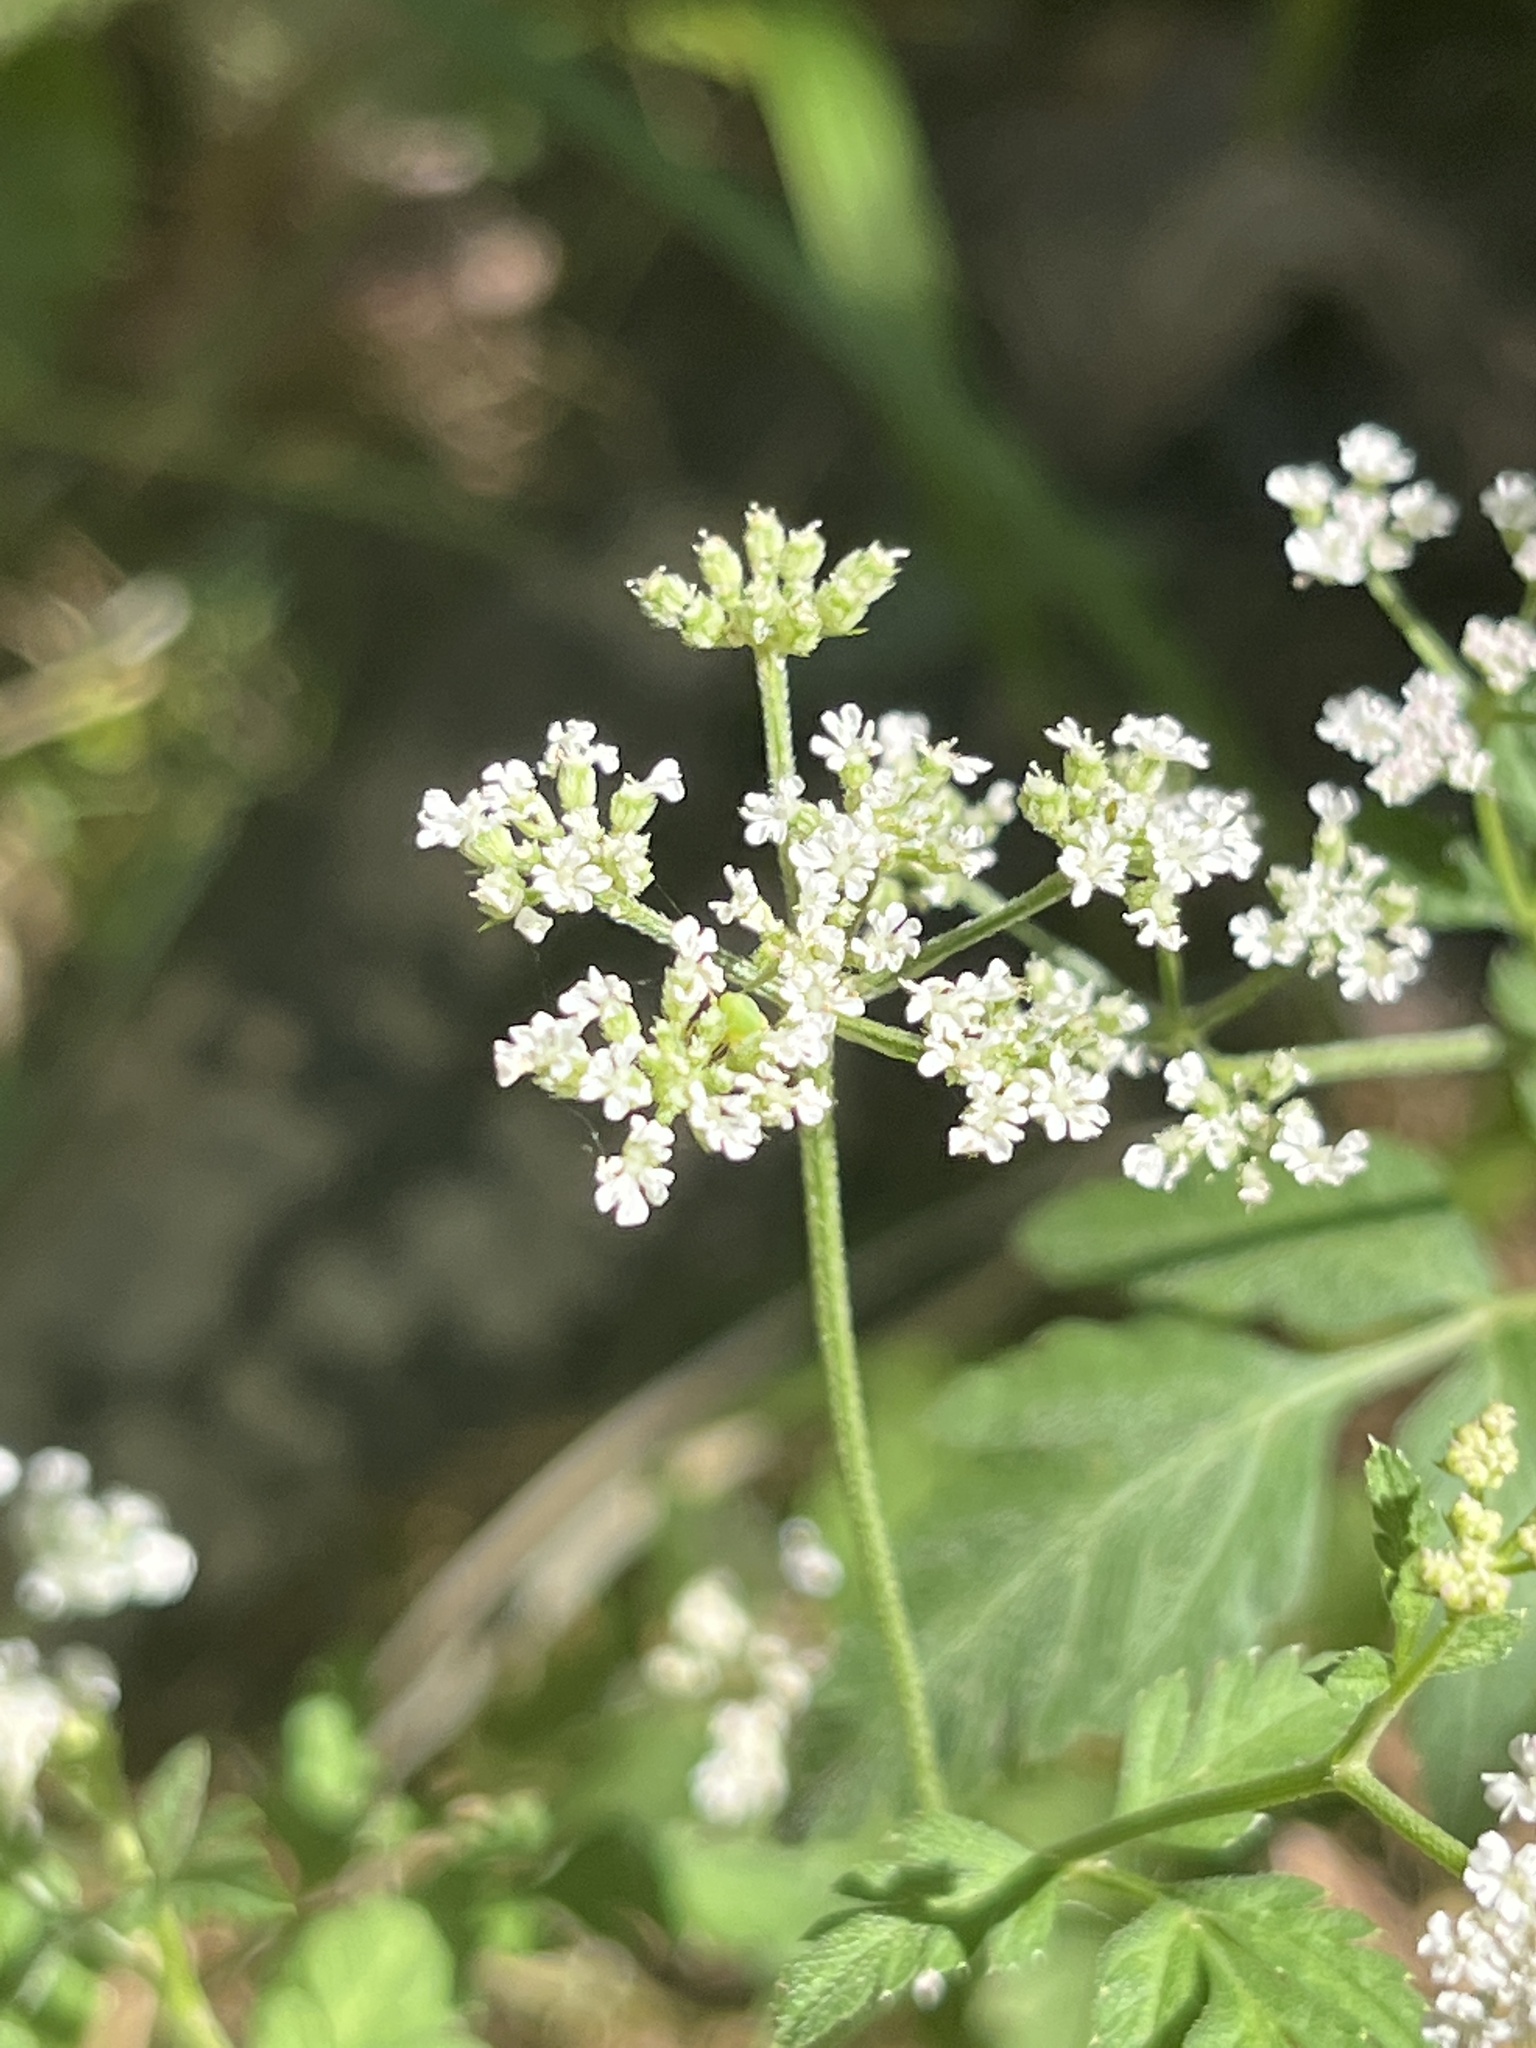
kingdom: Plantae
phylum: Tracheophyta
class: Magnoliopsida
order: Apiales
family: Apiaceae
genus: Torilis
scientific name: Torilis
